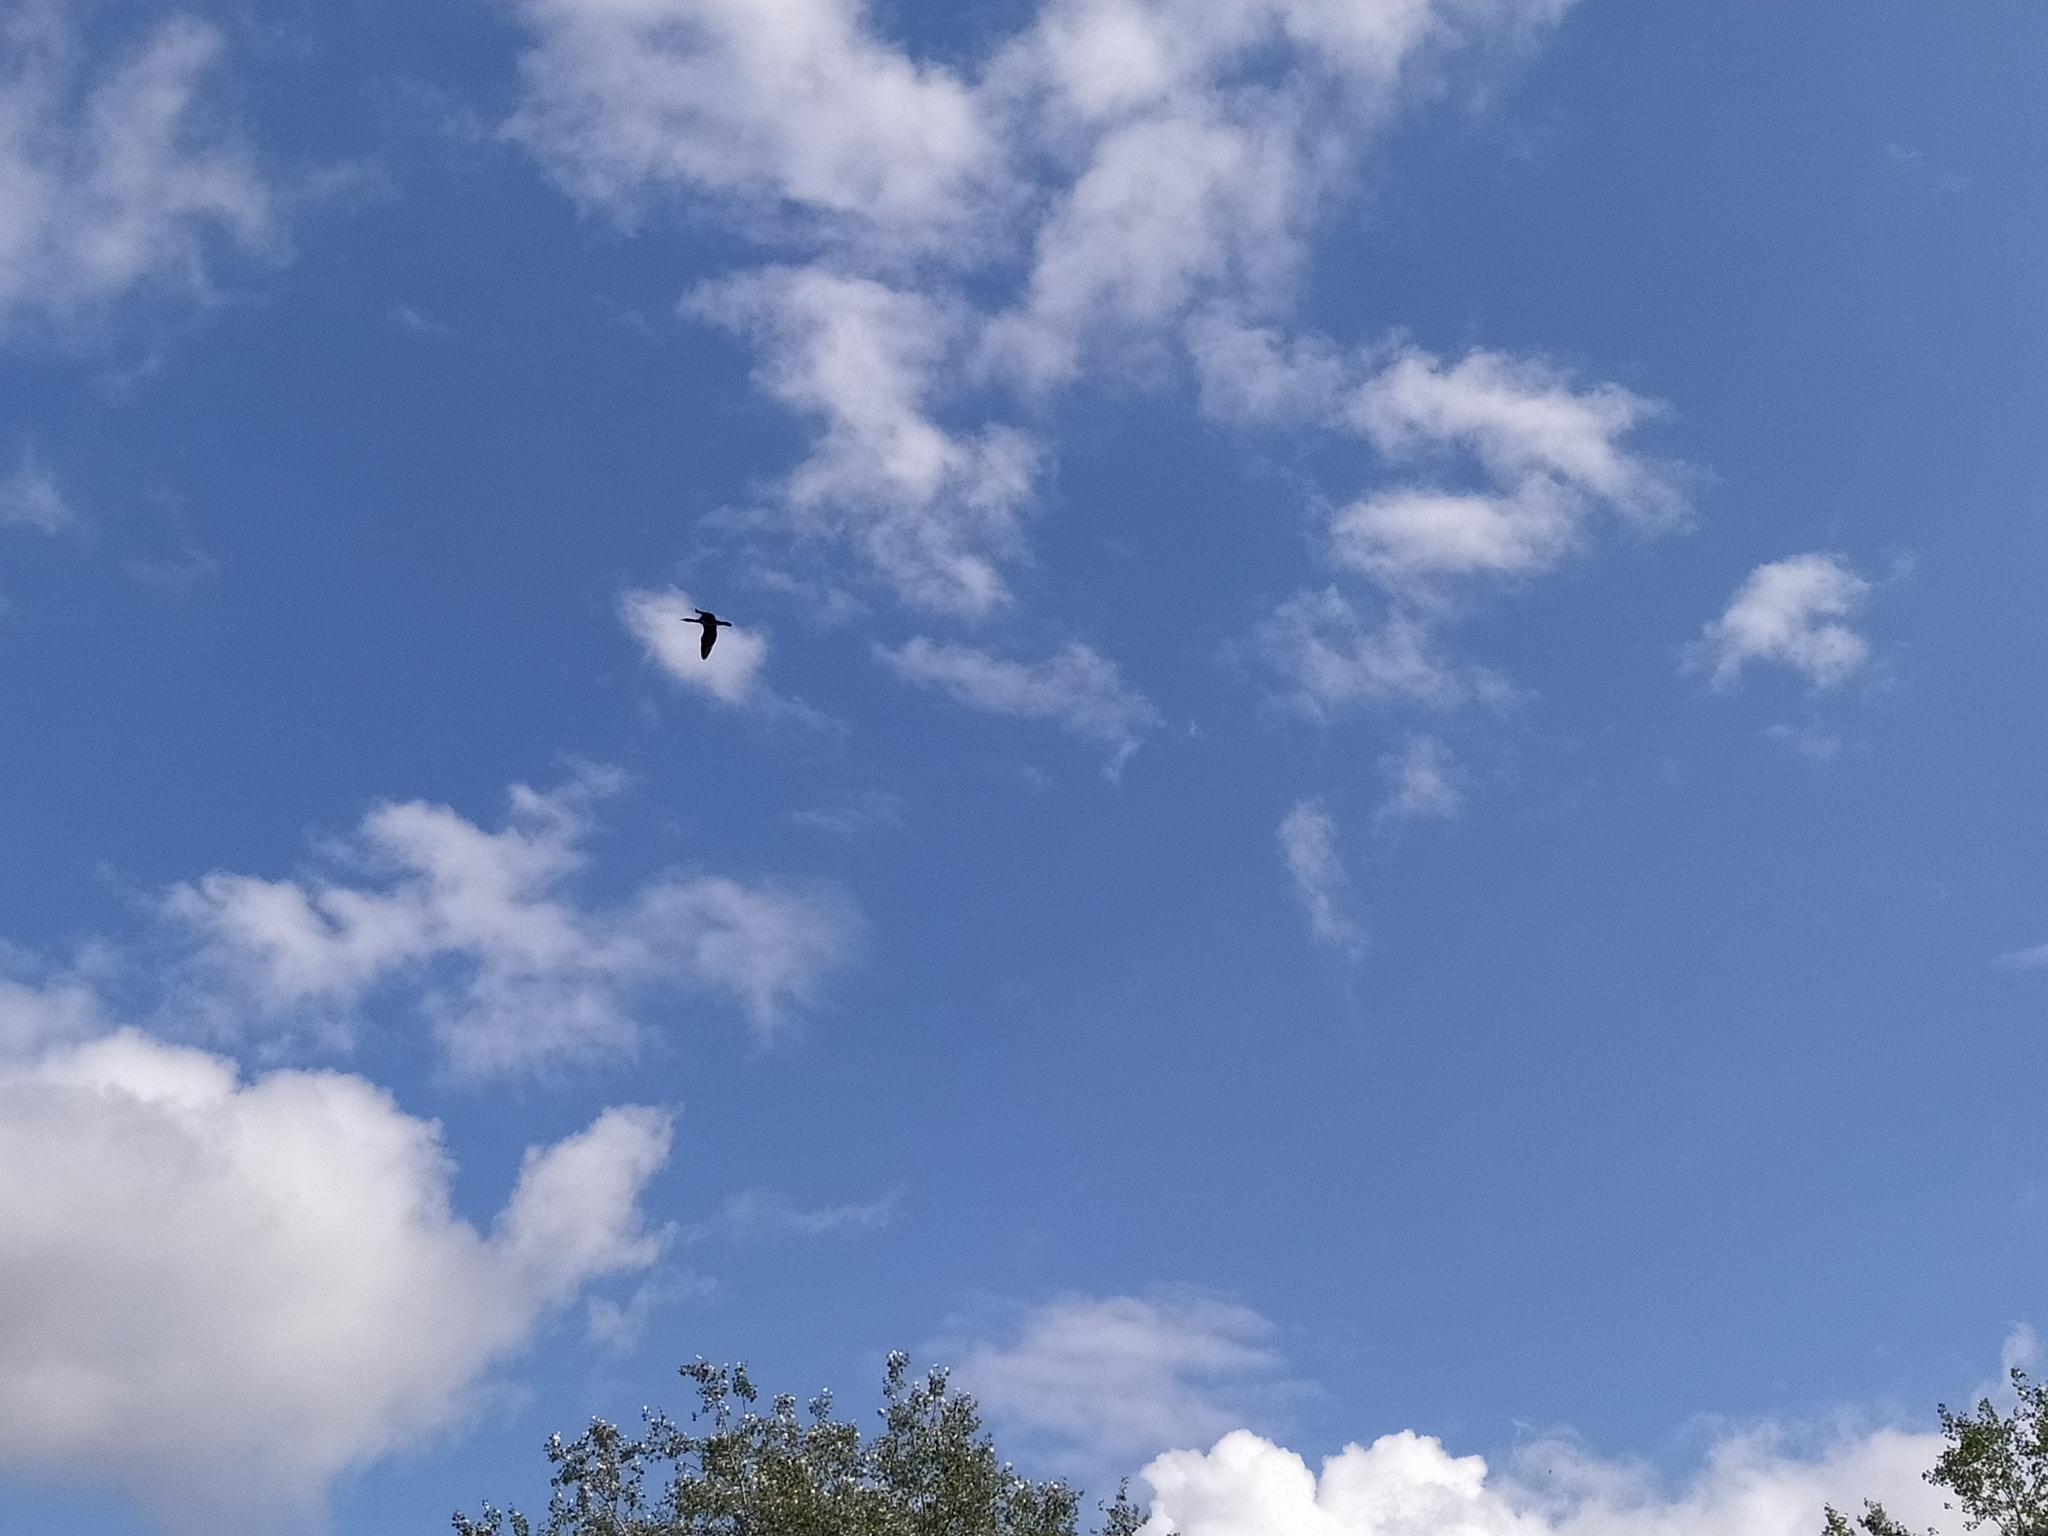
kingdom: Animalia
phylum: Chordata
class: Aves
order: Suliformes
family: Phalacrocoracidae
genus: Phalacrocorax
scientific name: Phalacrocorax carbo
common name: Great cormorant
